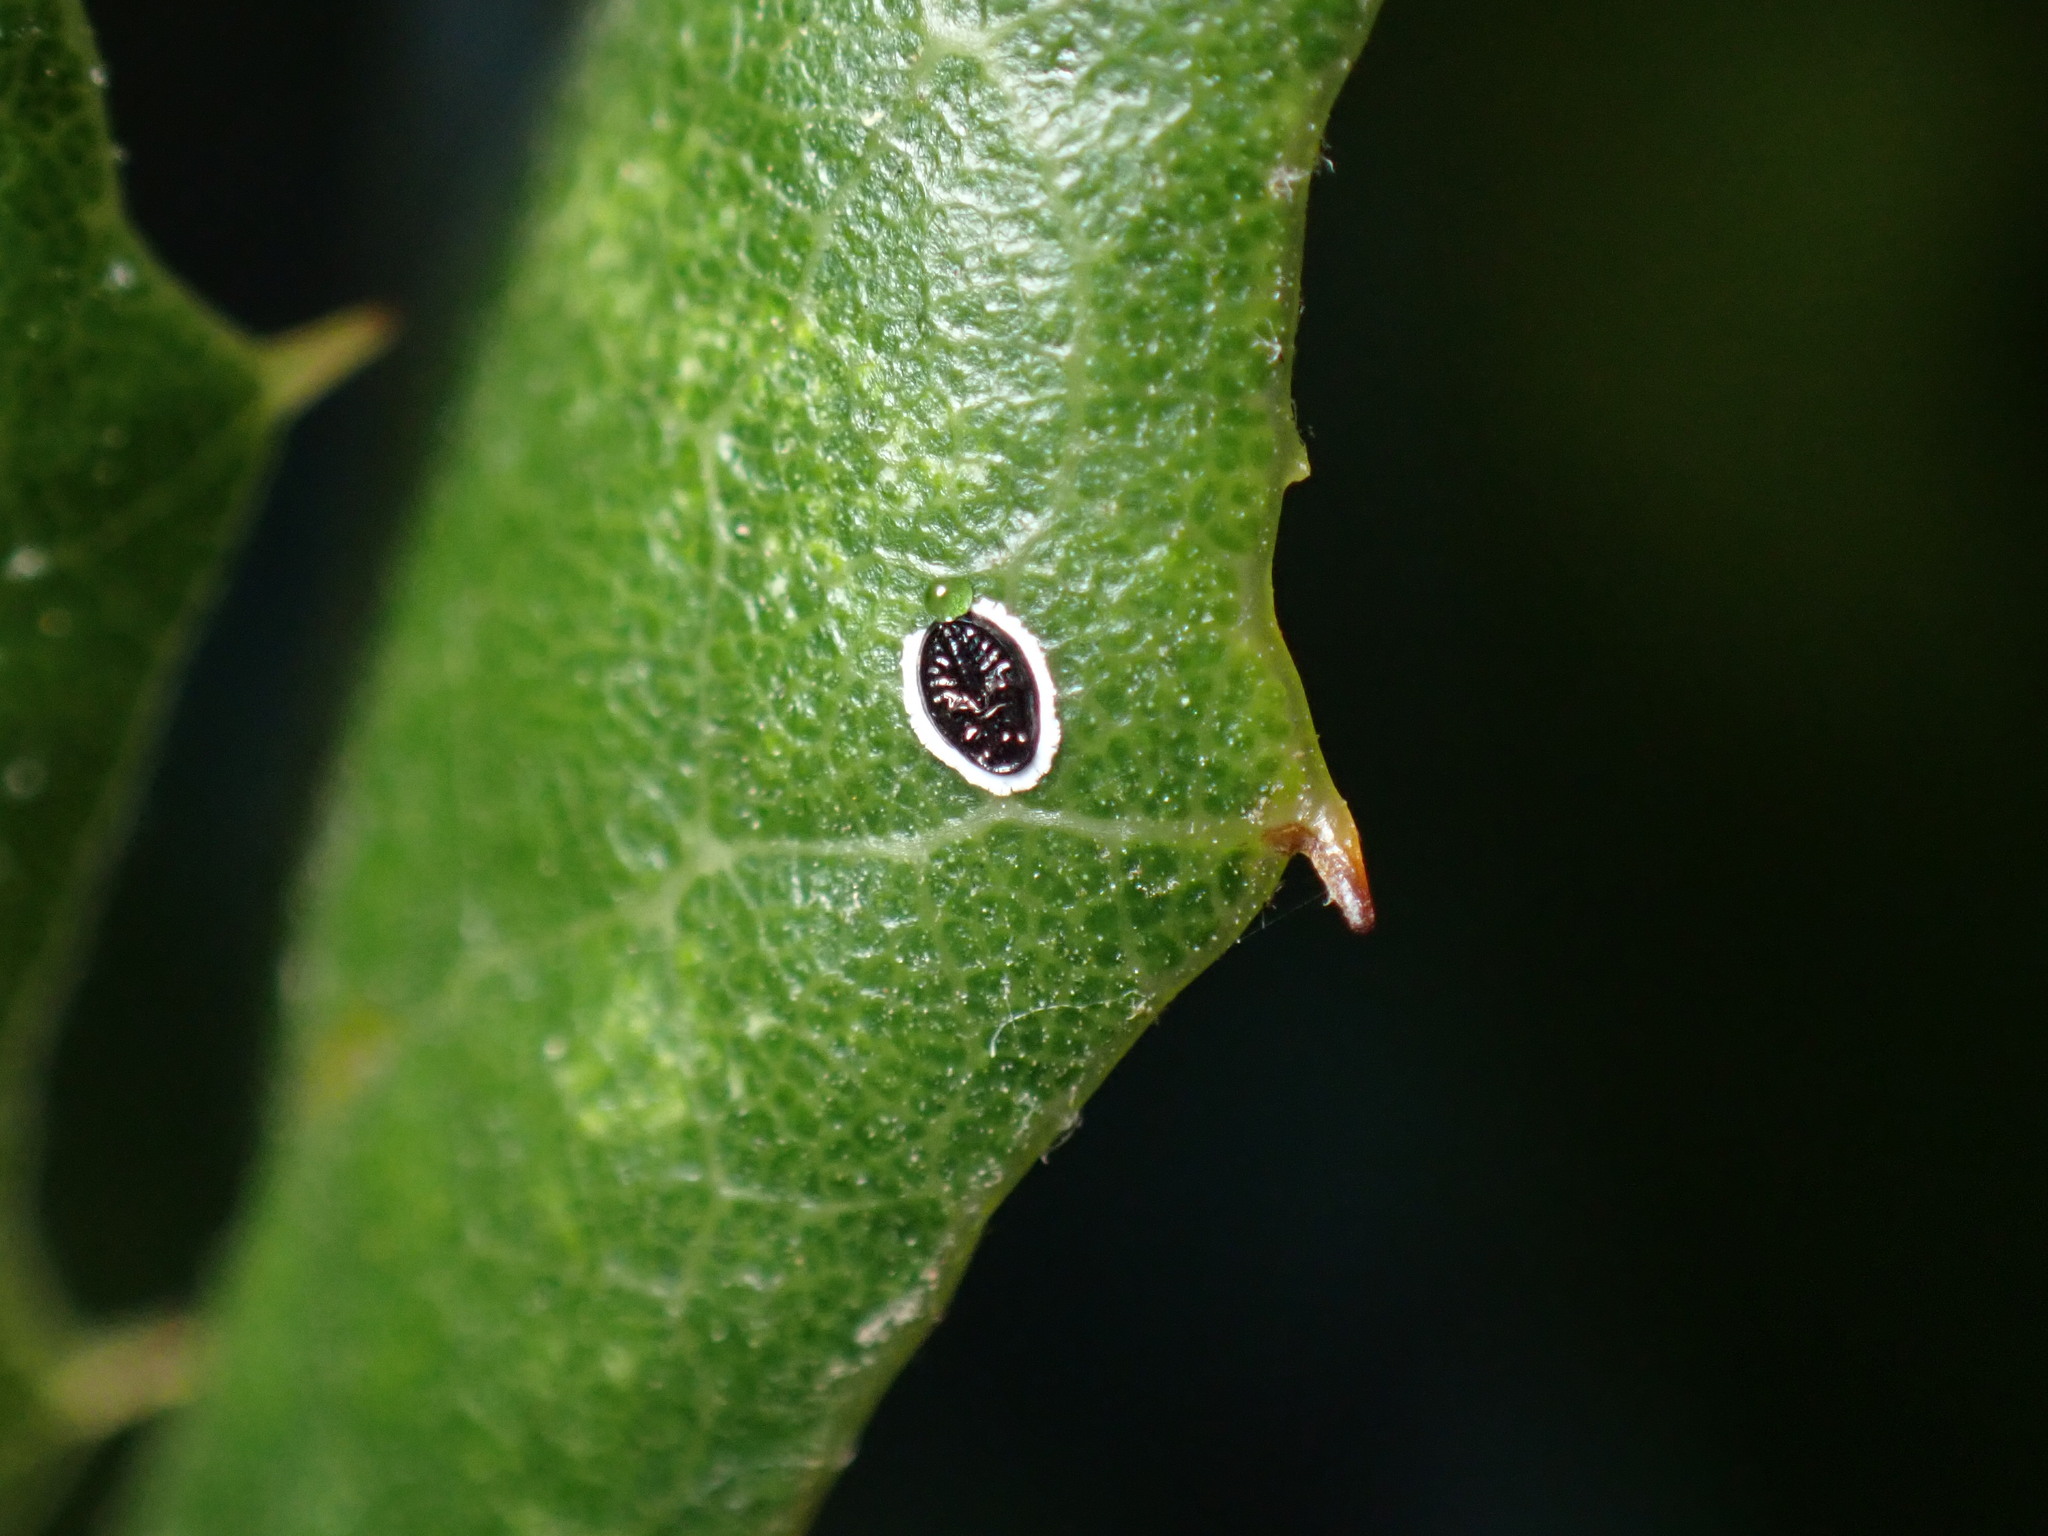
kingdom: Animalia
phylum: Arthropoda
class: Insecta
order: Hemiptera
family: Aleyrodidae
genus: Tetraleurodes
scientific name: Tetraleurodes perileuca
